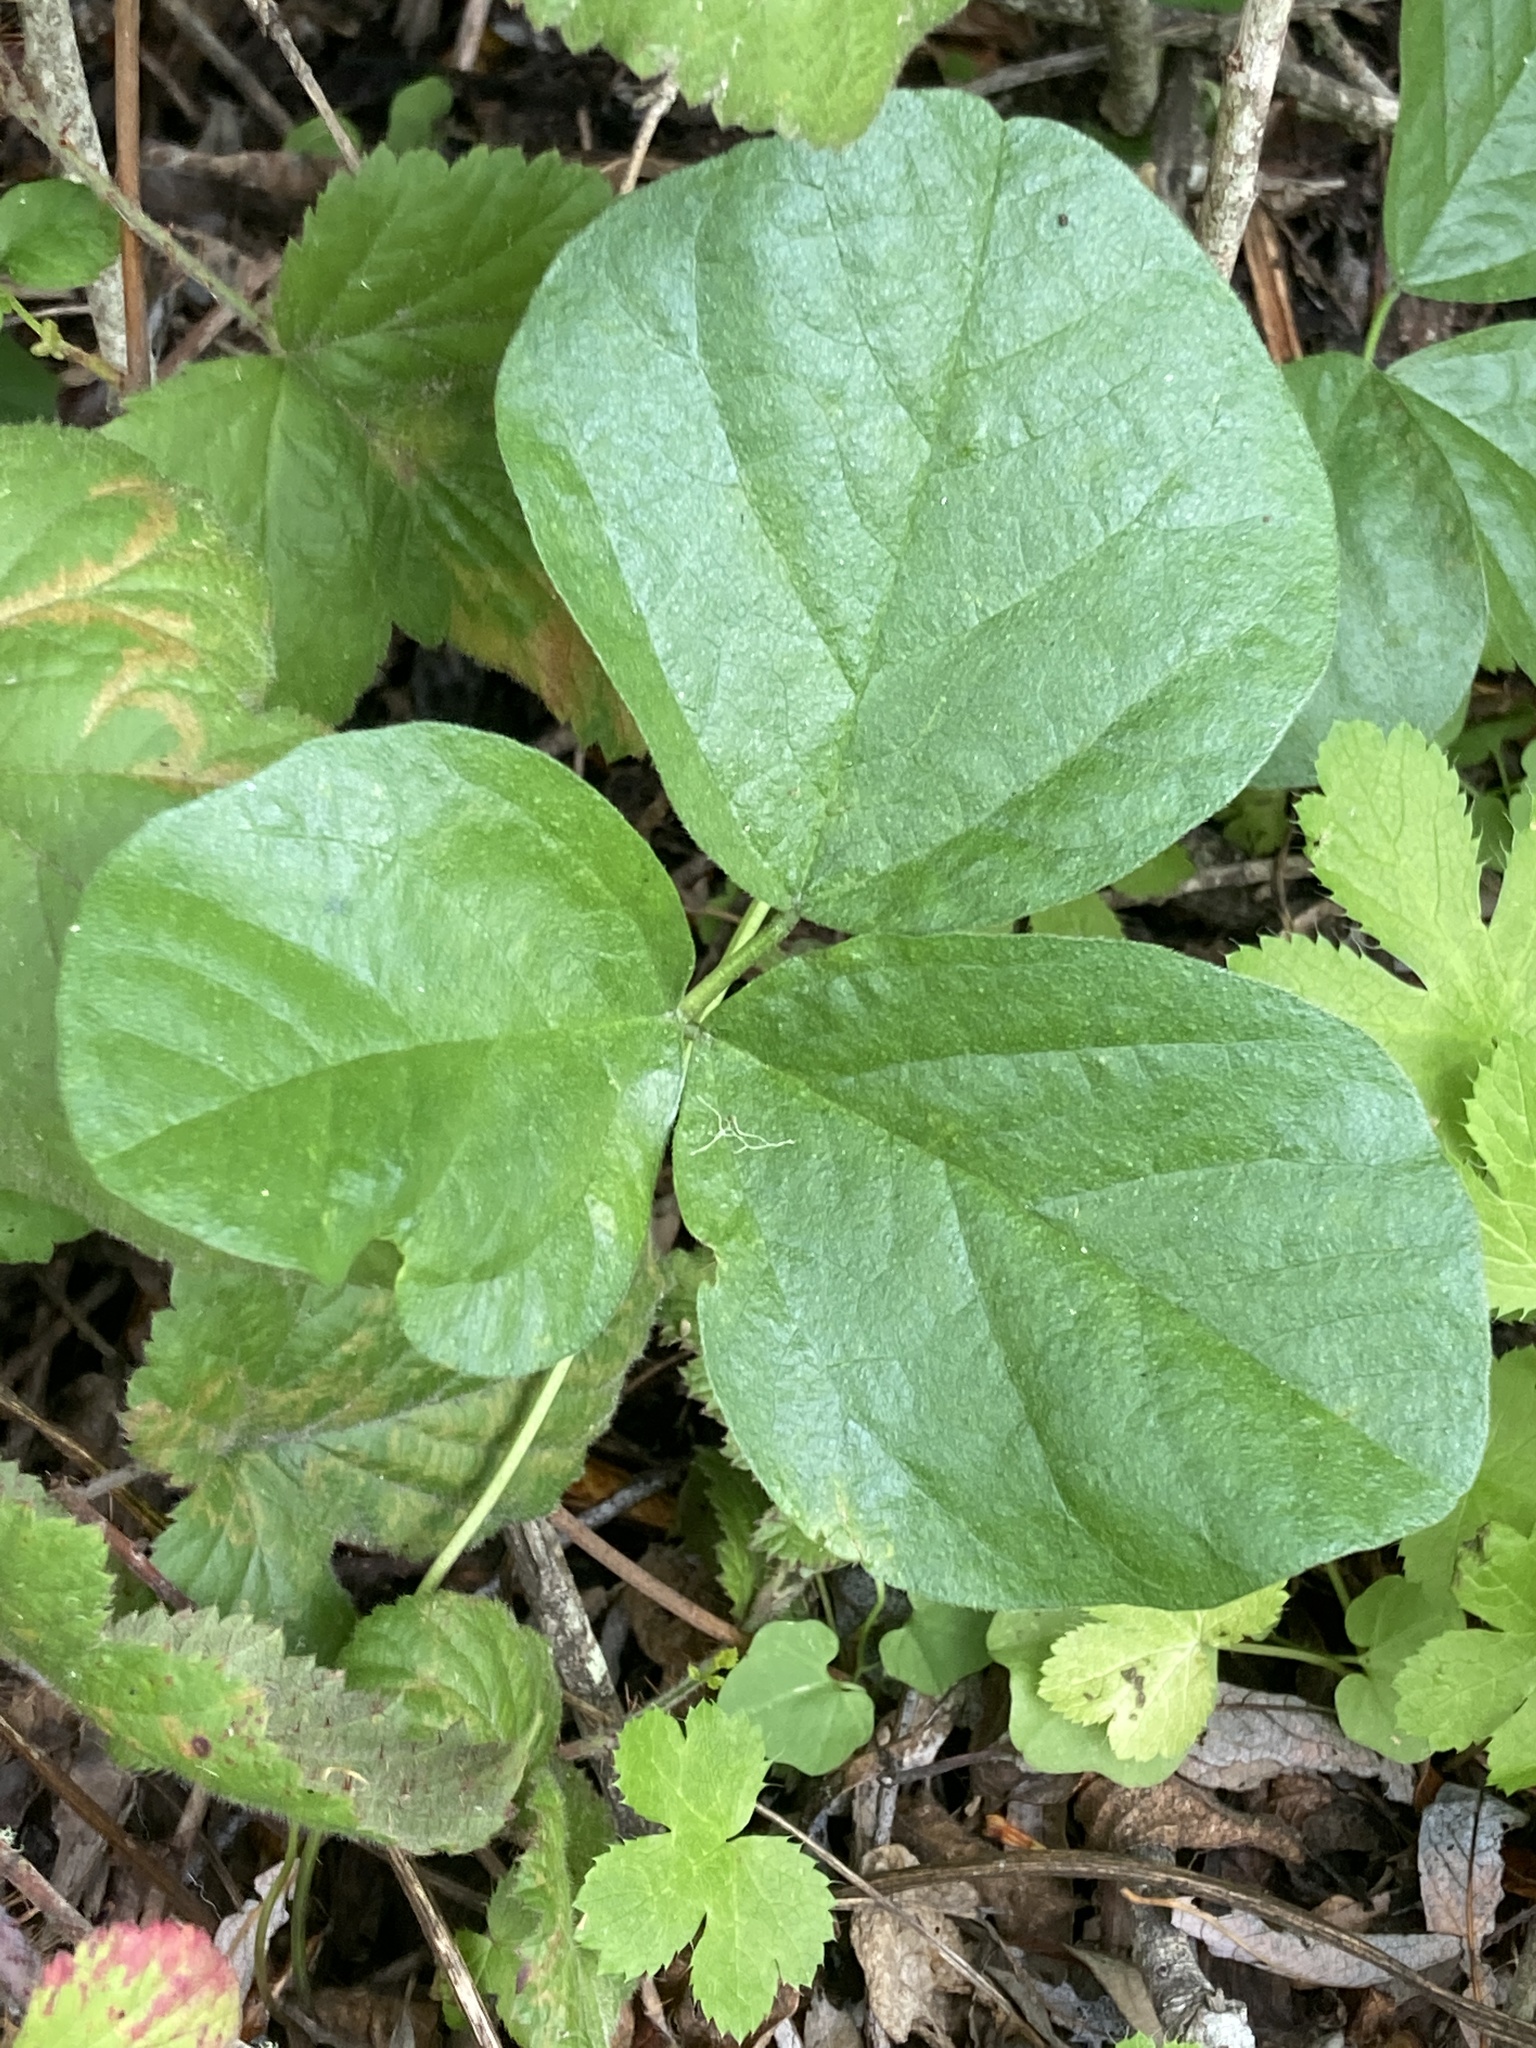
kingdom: Plantae
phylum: Tracheophyta
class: Magnoliopsida
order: Fabales
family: Fabaceae
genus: Hoita
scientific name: Hoita orbicularis
